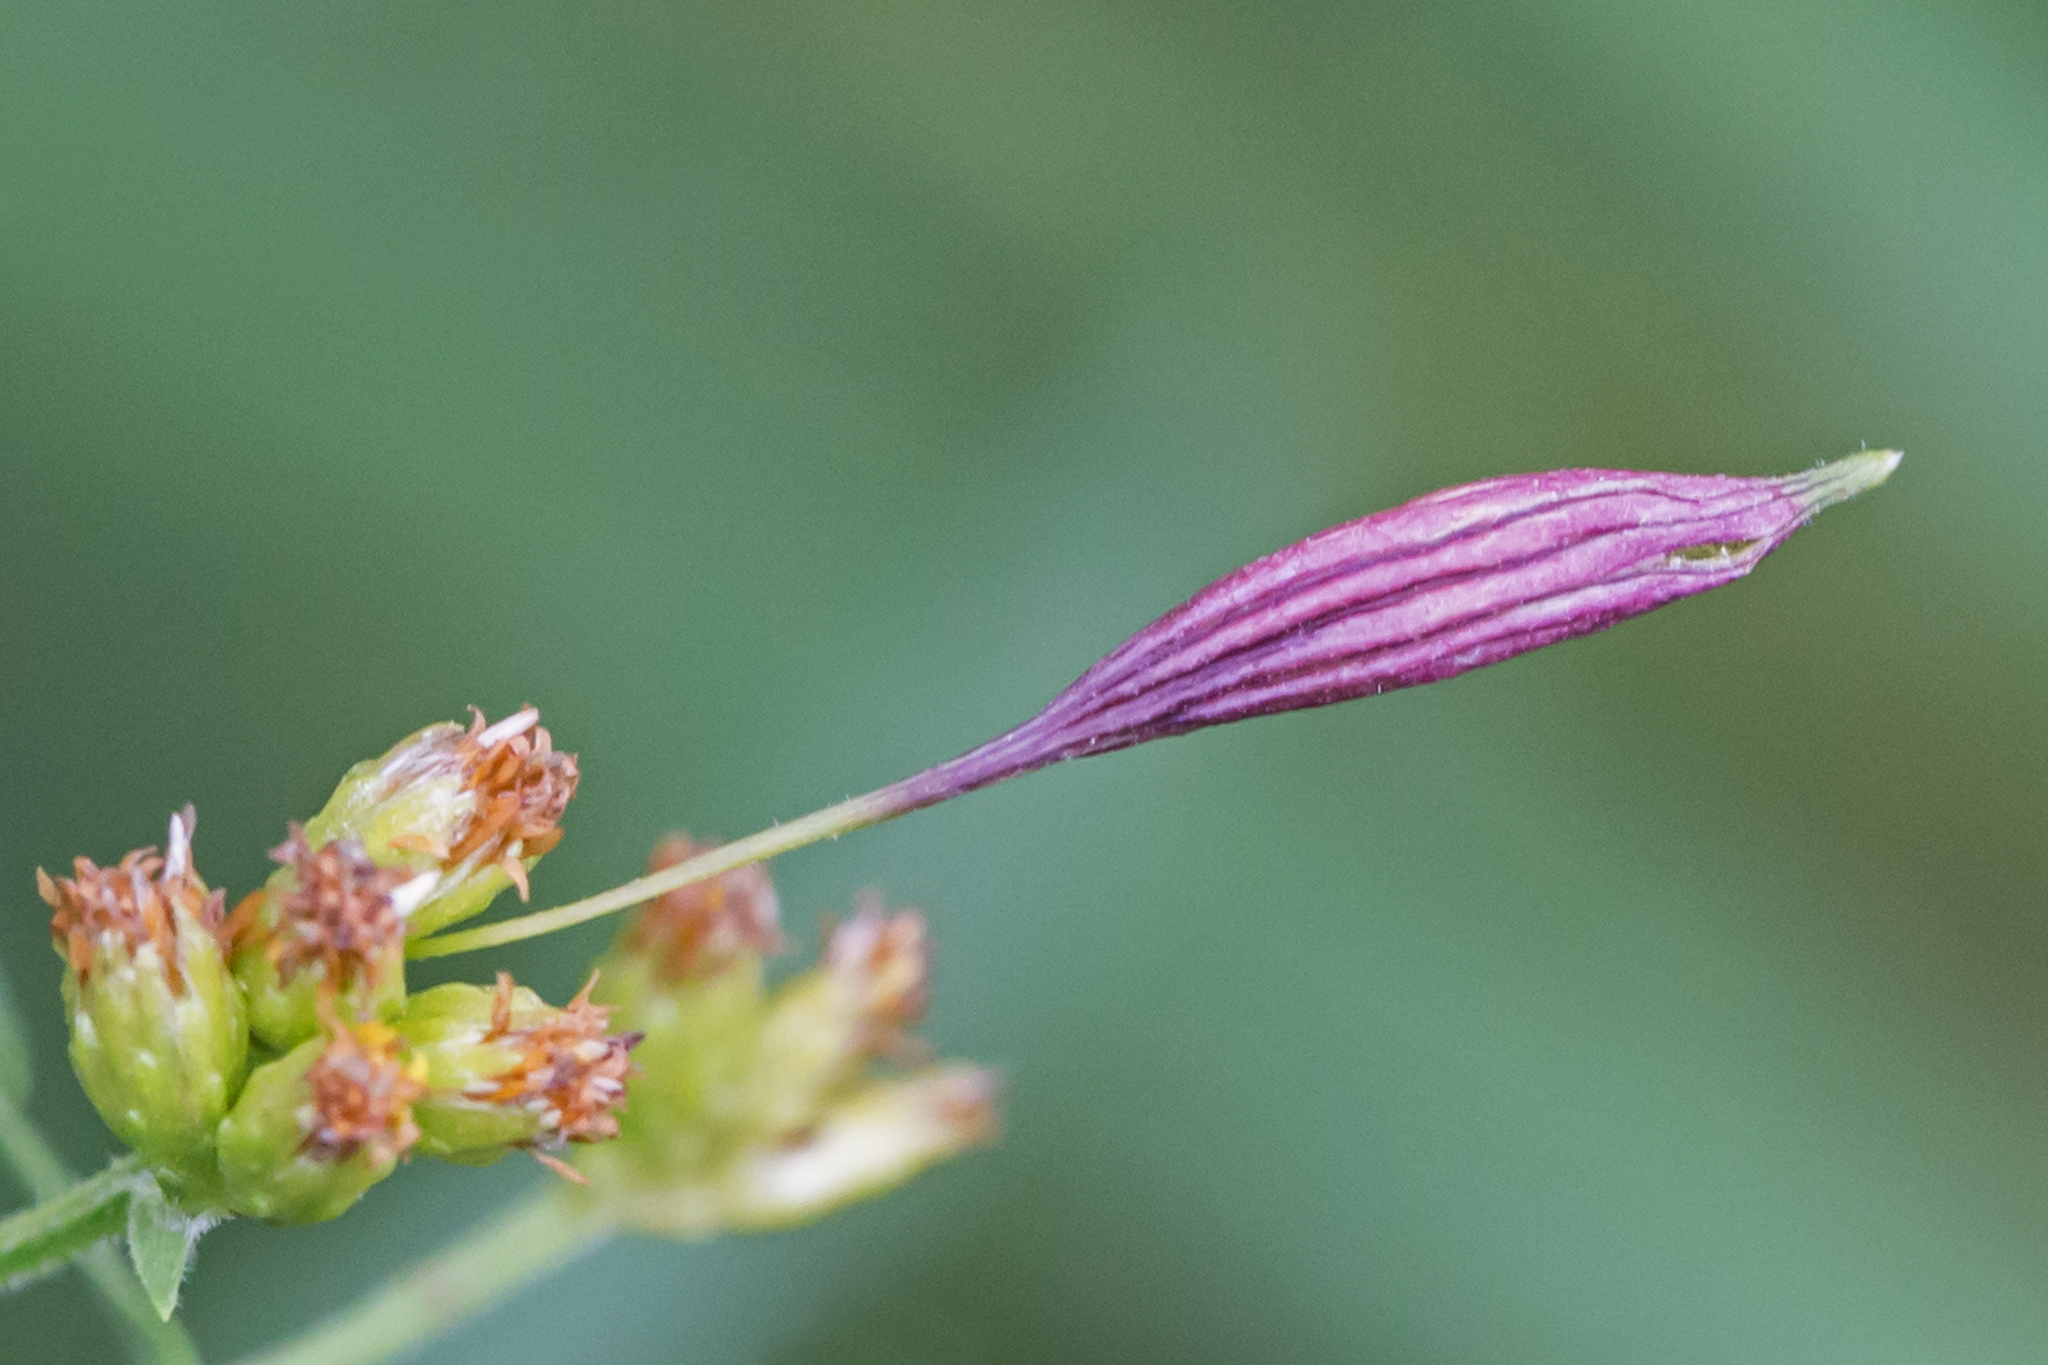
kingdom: Animalia
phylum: Arthropoda
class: Insecta
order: Diptera
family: Cecidomyiidae
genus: Rhopalomyia
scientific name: Rhopalomyia pedicellata
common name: Goldentop pedicellate gall midge
